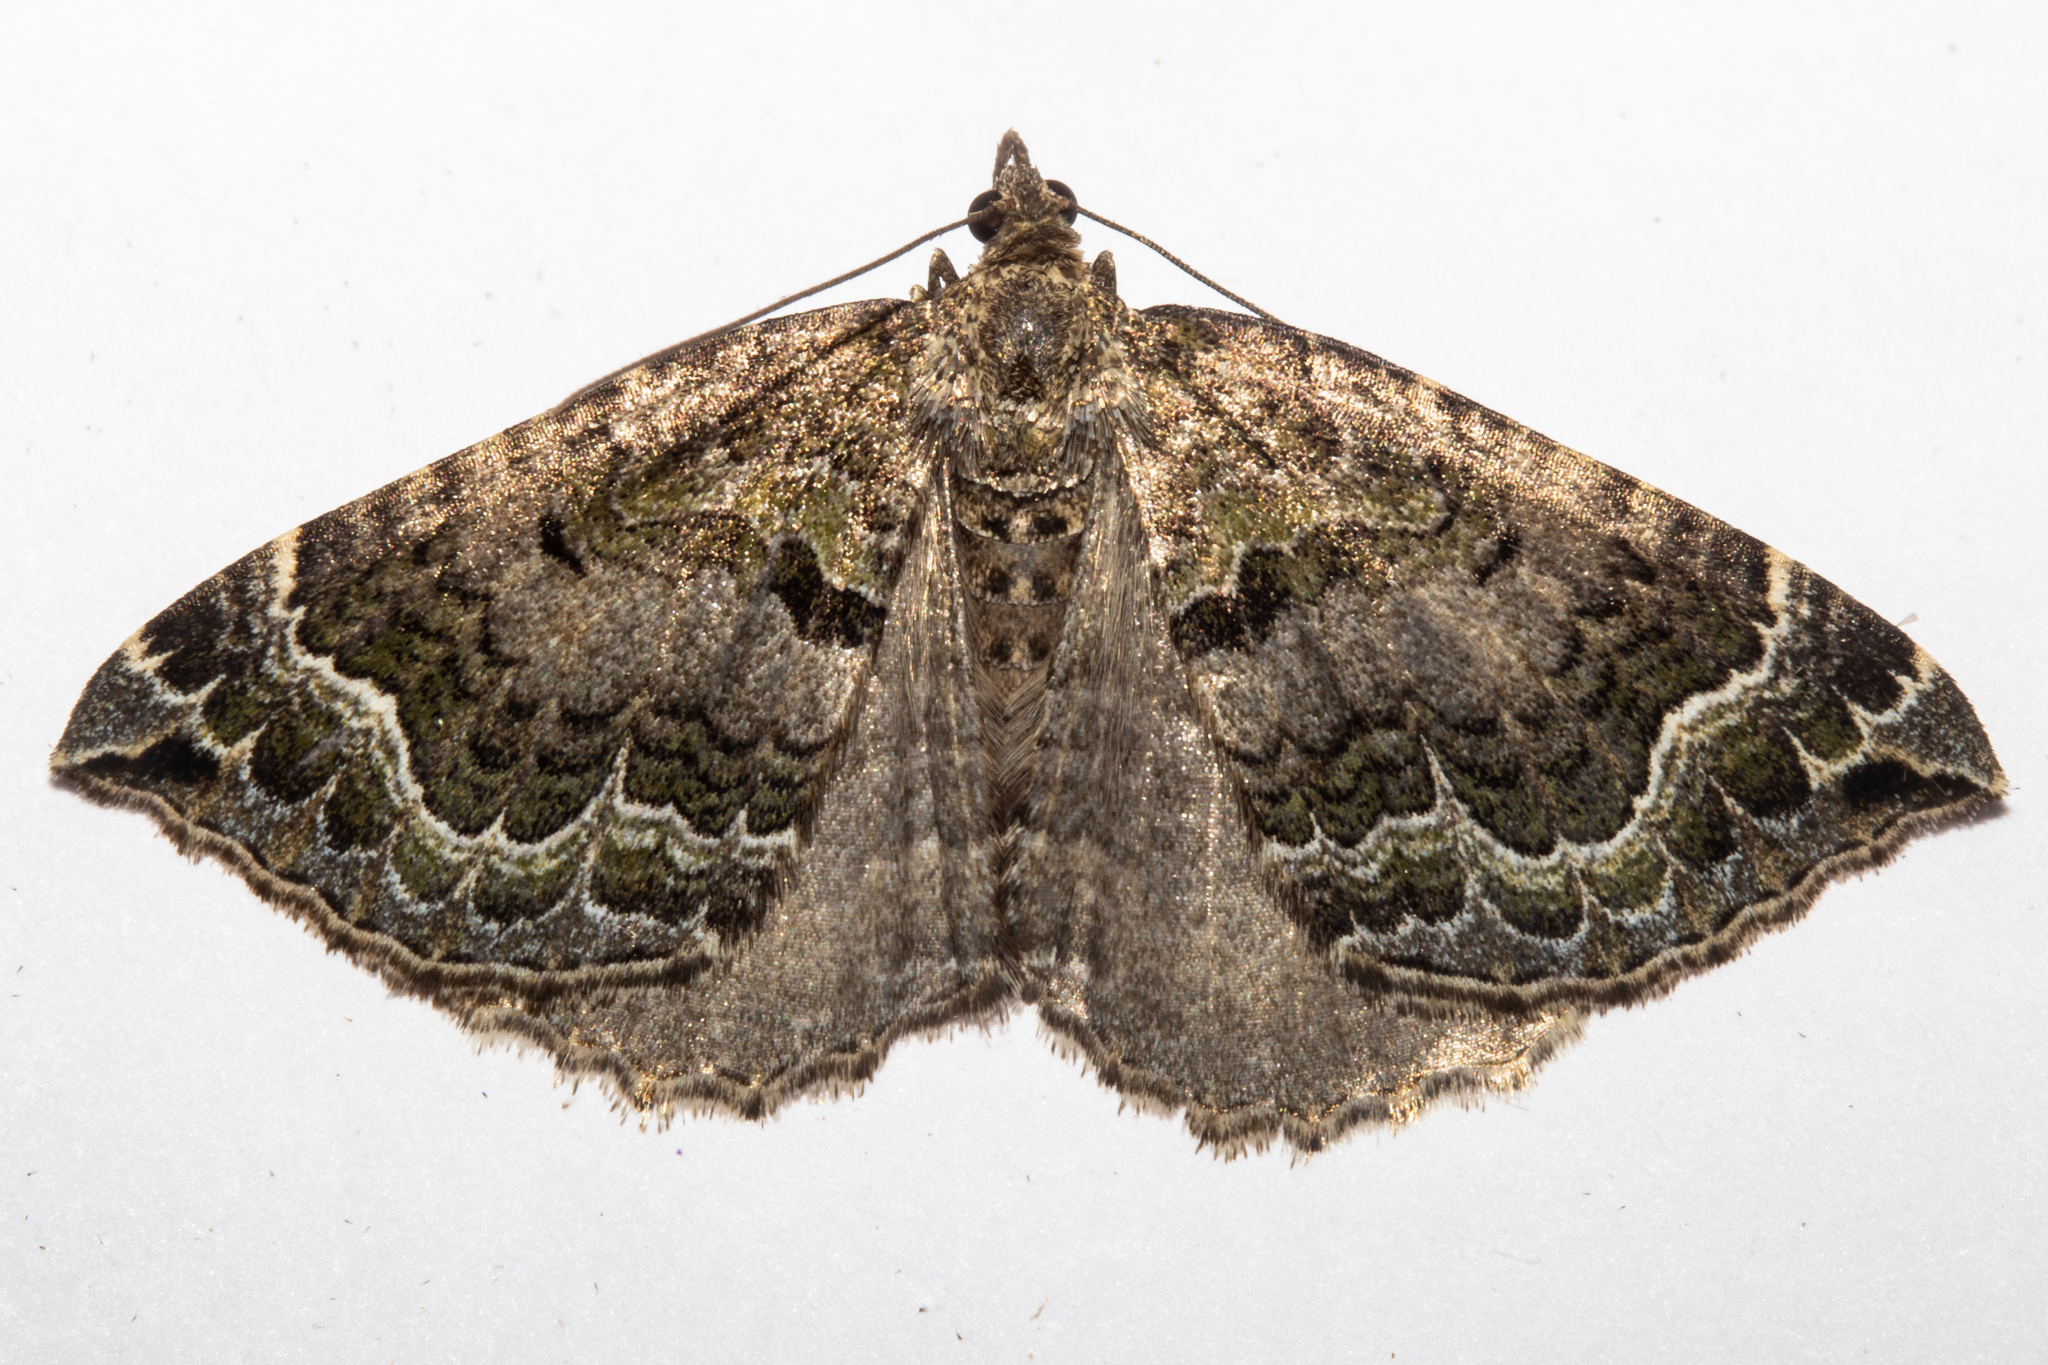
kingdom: Animalia
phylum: Arthropoda
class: Insecta
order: Lepidoptera
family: Geometridae
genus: Hydriomena
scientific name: Hydriomena rixata
